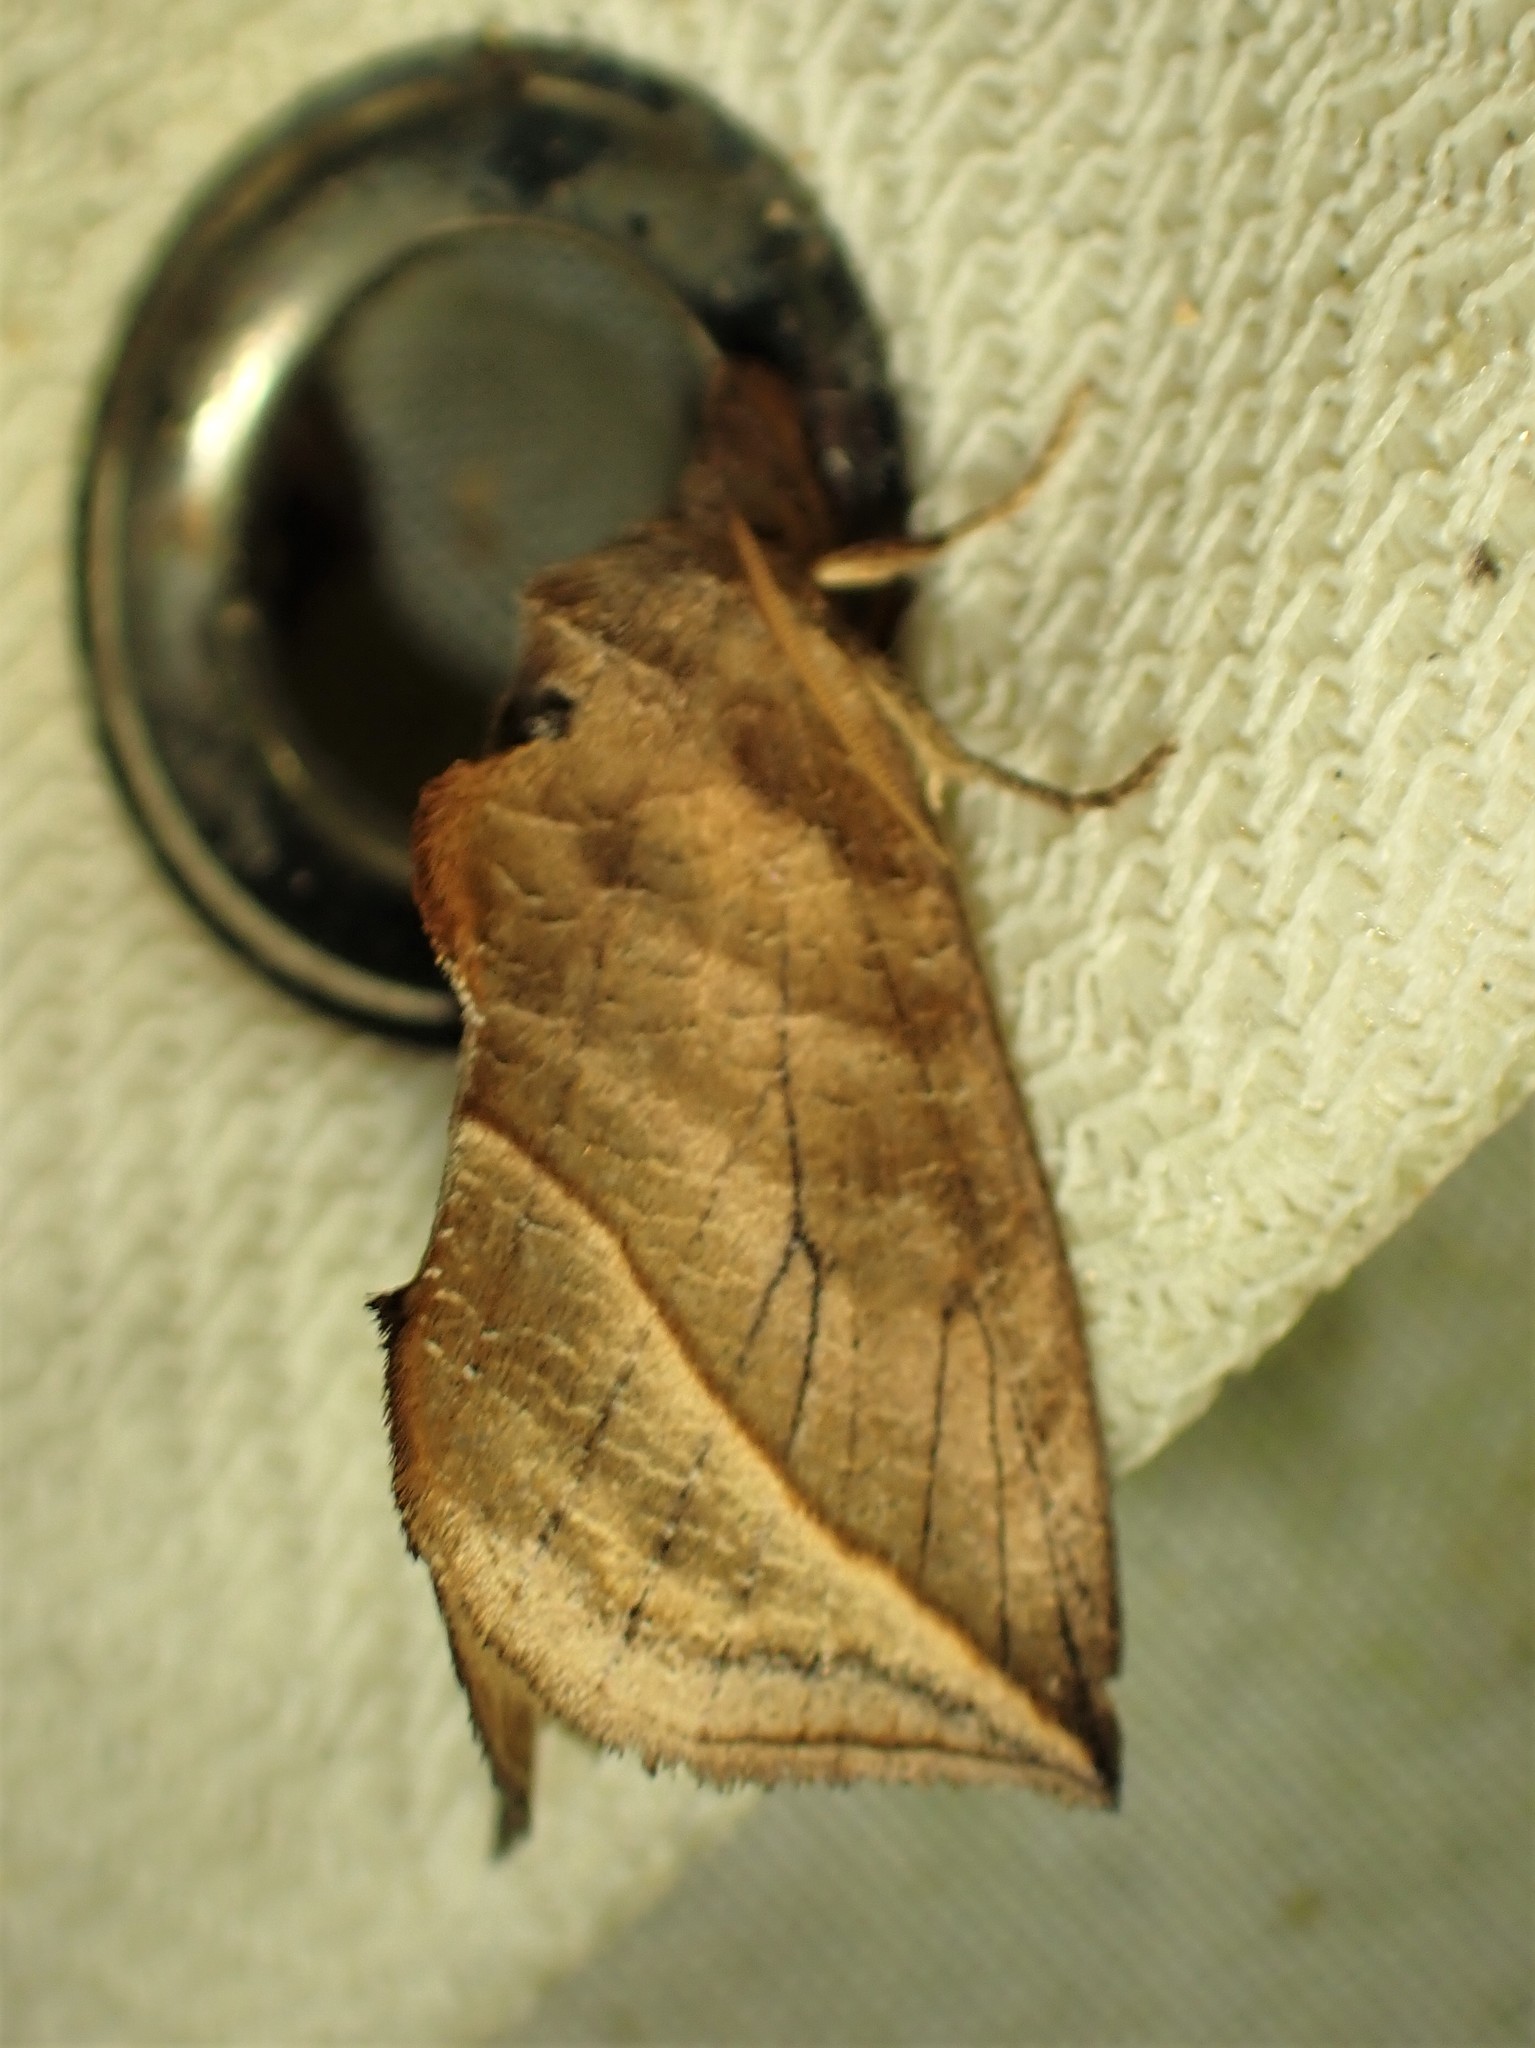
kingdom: Animalia
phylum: Arthropoda
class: Insecta
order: Lepidoptera
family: Erebidae
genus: Calyptra
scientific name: Calyptra canadensis
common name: Canadian owlet
